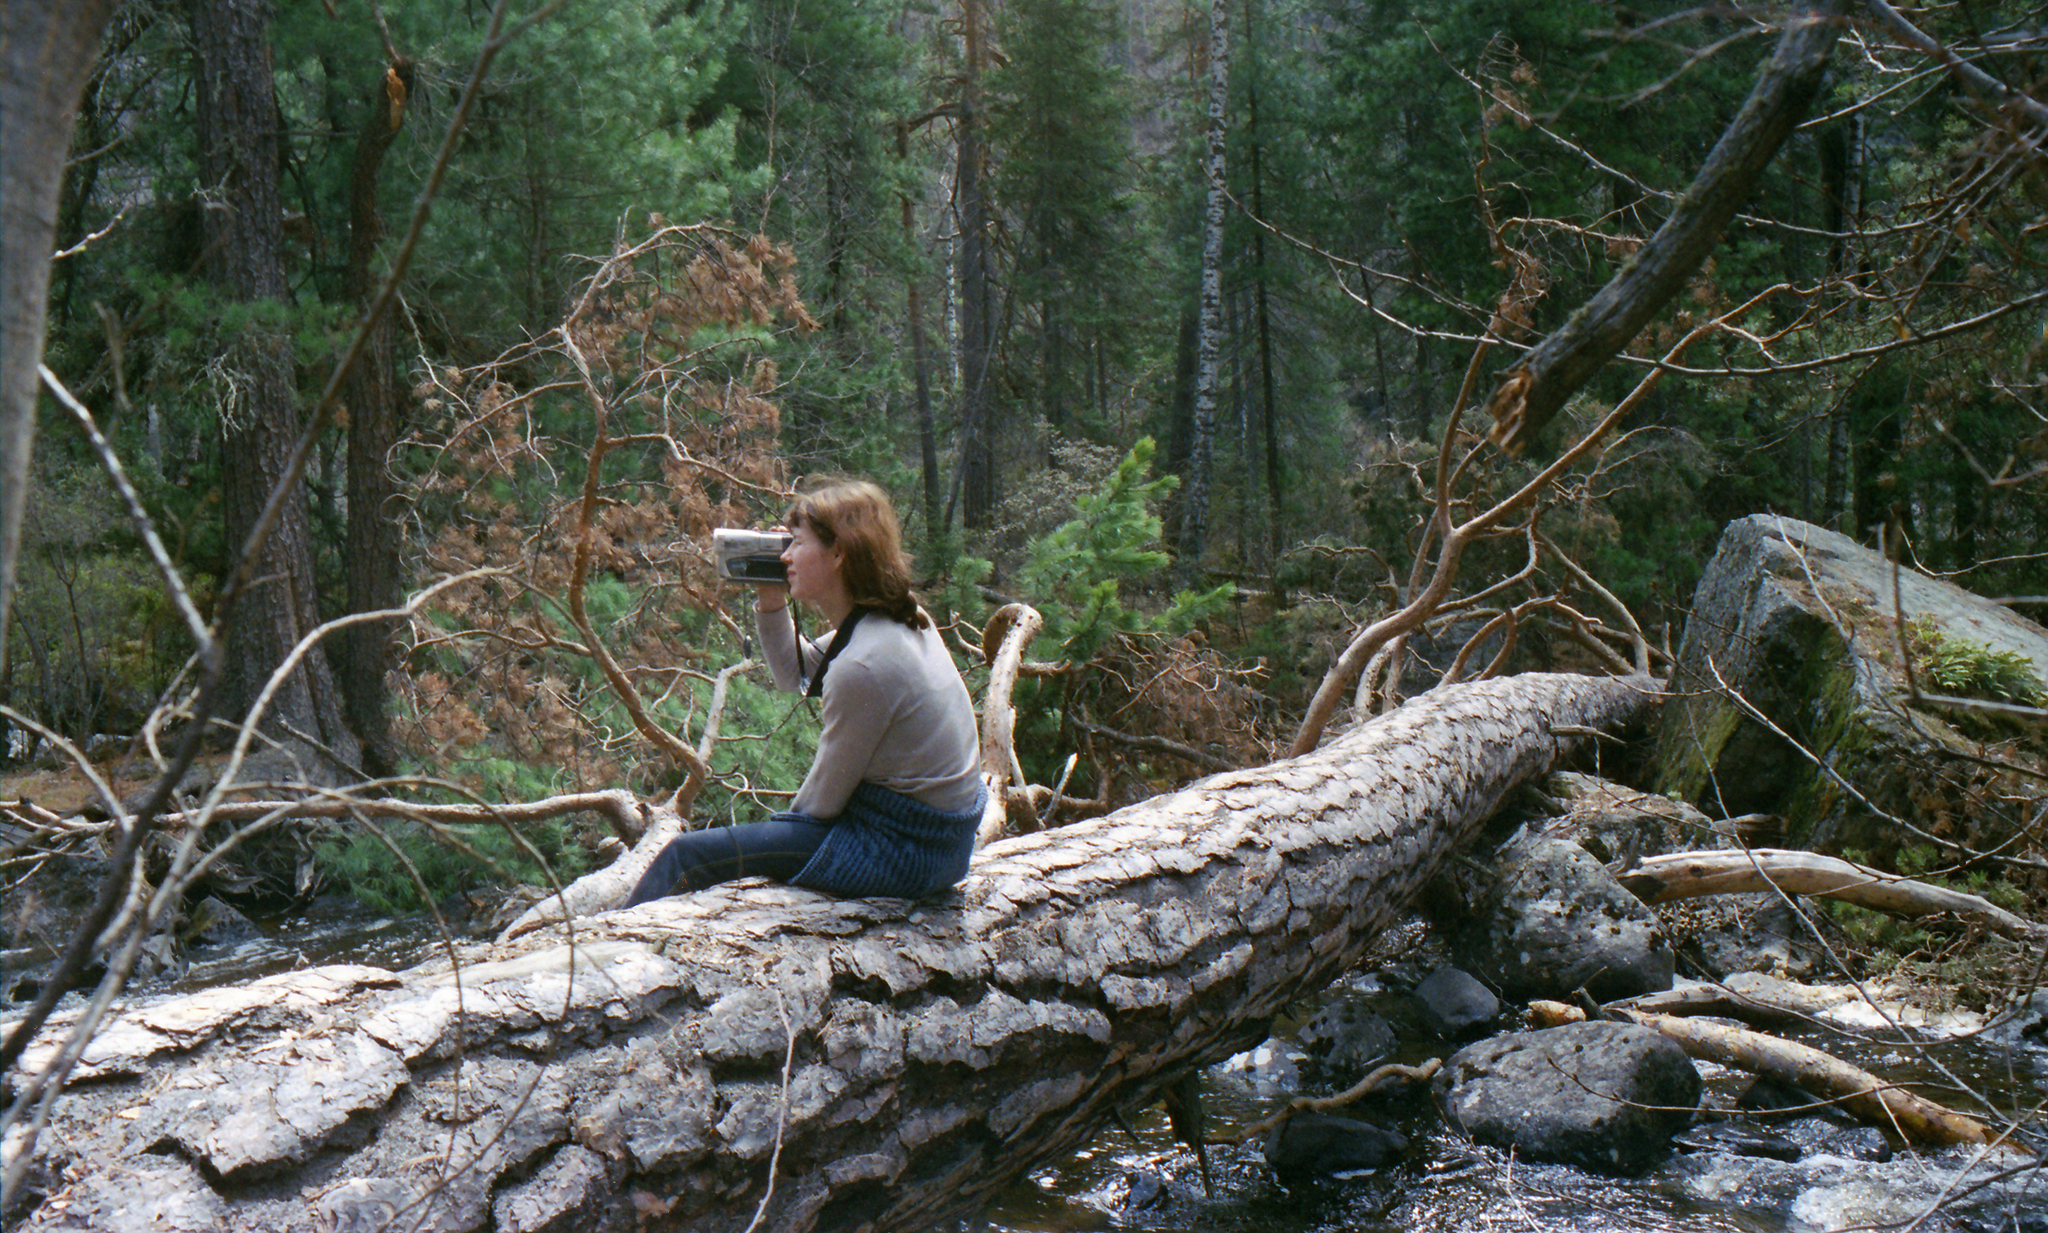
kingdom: Plantae
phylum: Tracheophyta
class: Pinopsida
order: Pinales
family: Pinaceae
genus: Pinus
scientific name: Pinus sylvestris
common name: Scots pine
